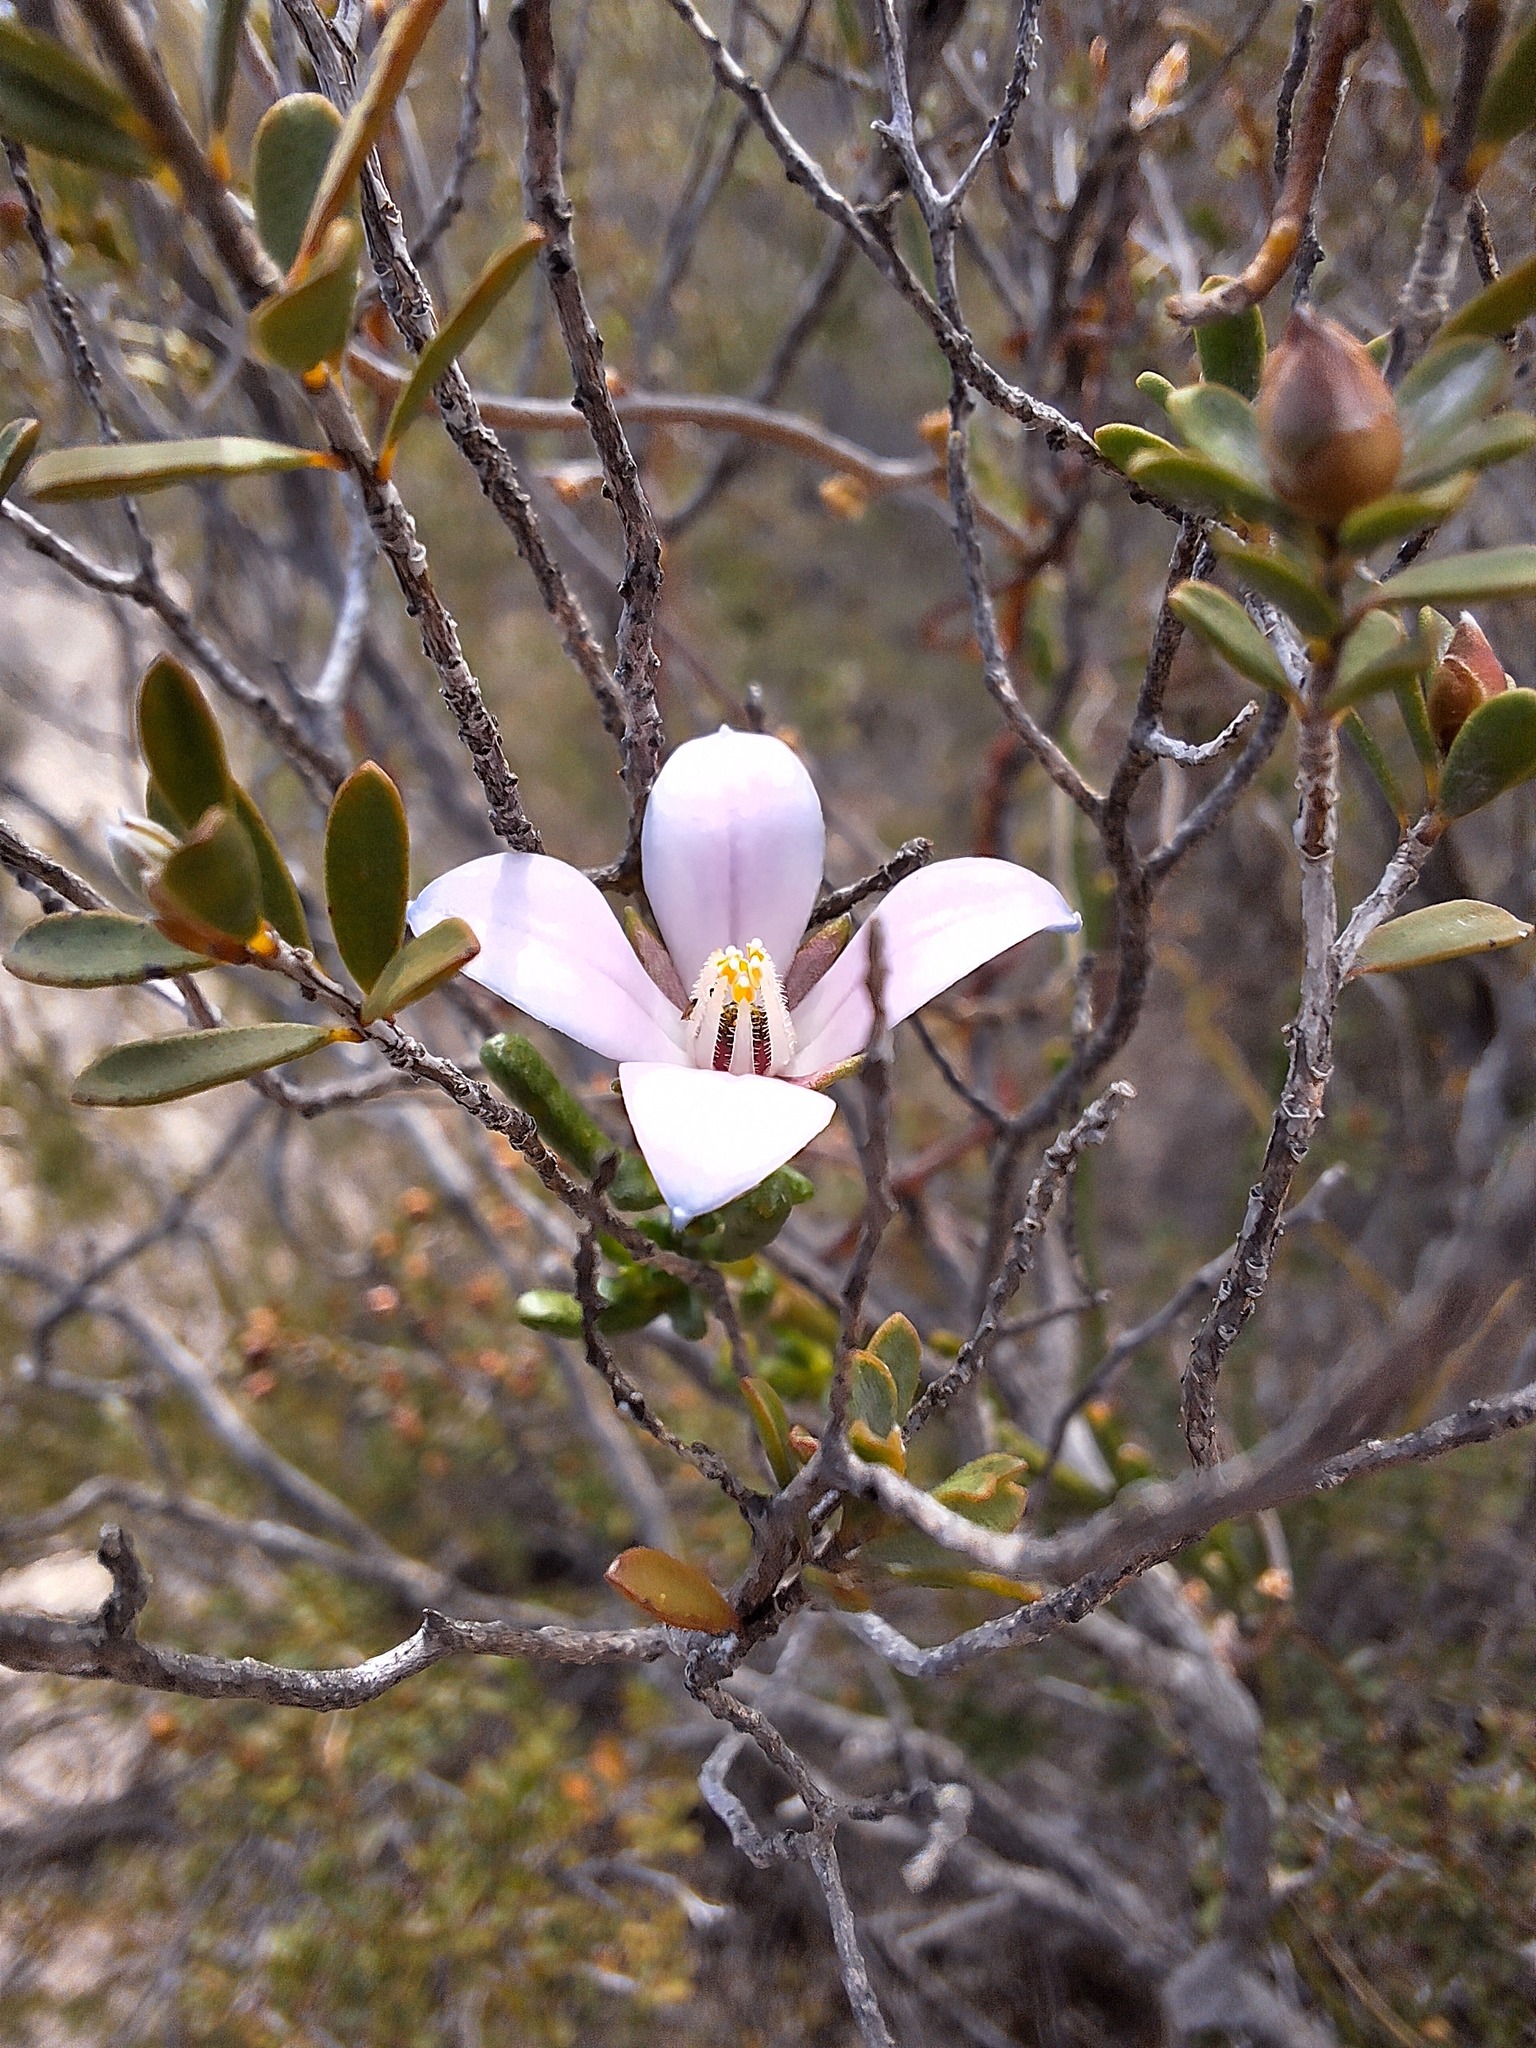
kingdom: Plantae
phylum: Tracheophyta
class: Magnoliopsida
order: Sapindales
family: Rutaceae
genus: Cyanothamnus
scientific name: Cyanothamnus coerulescens
